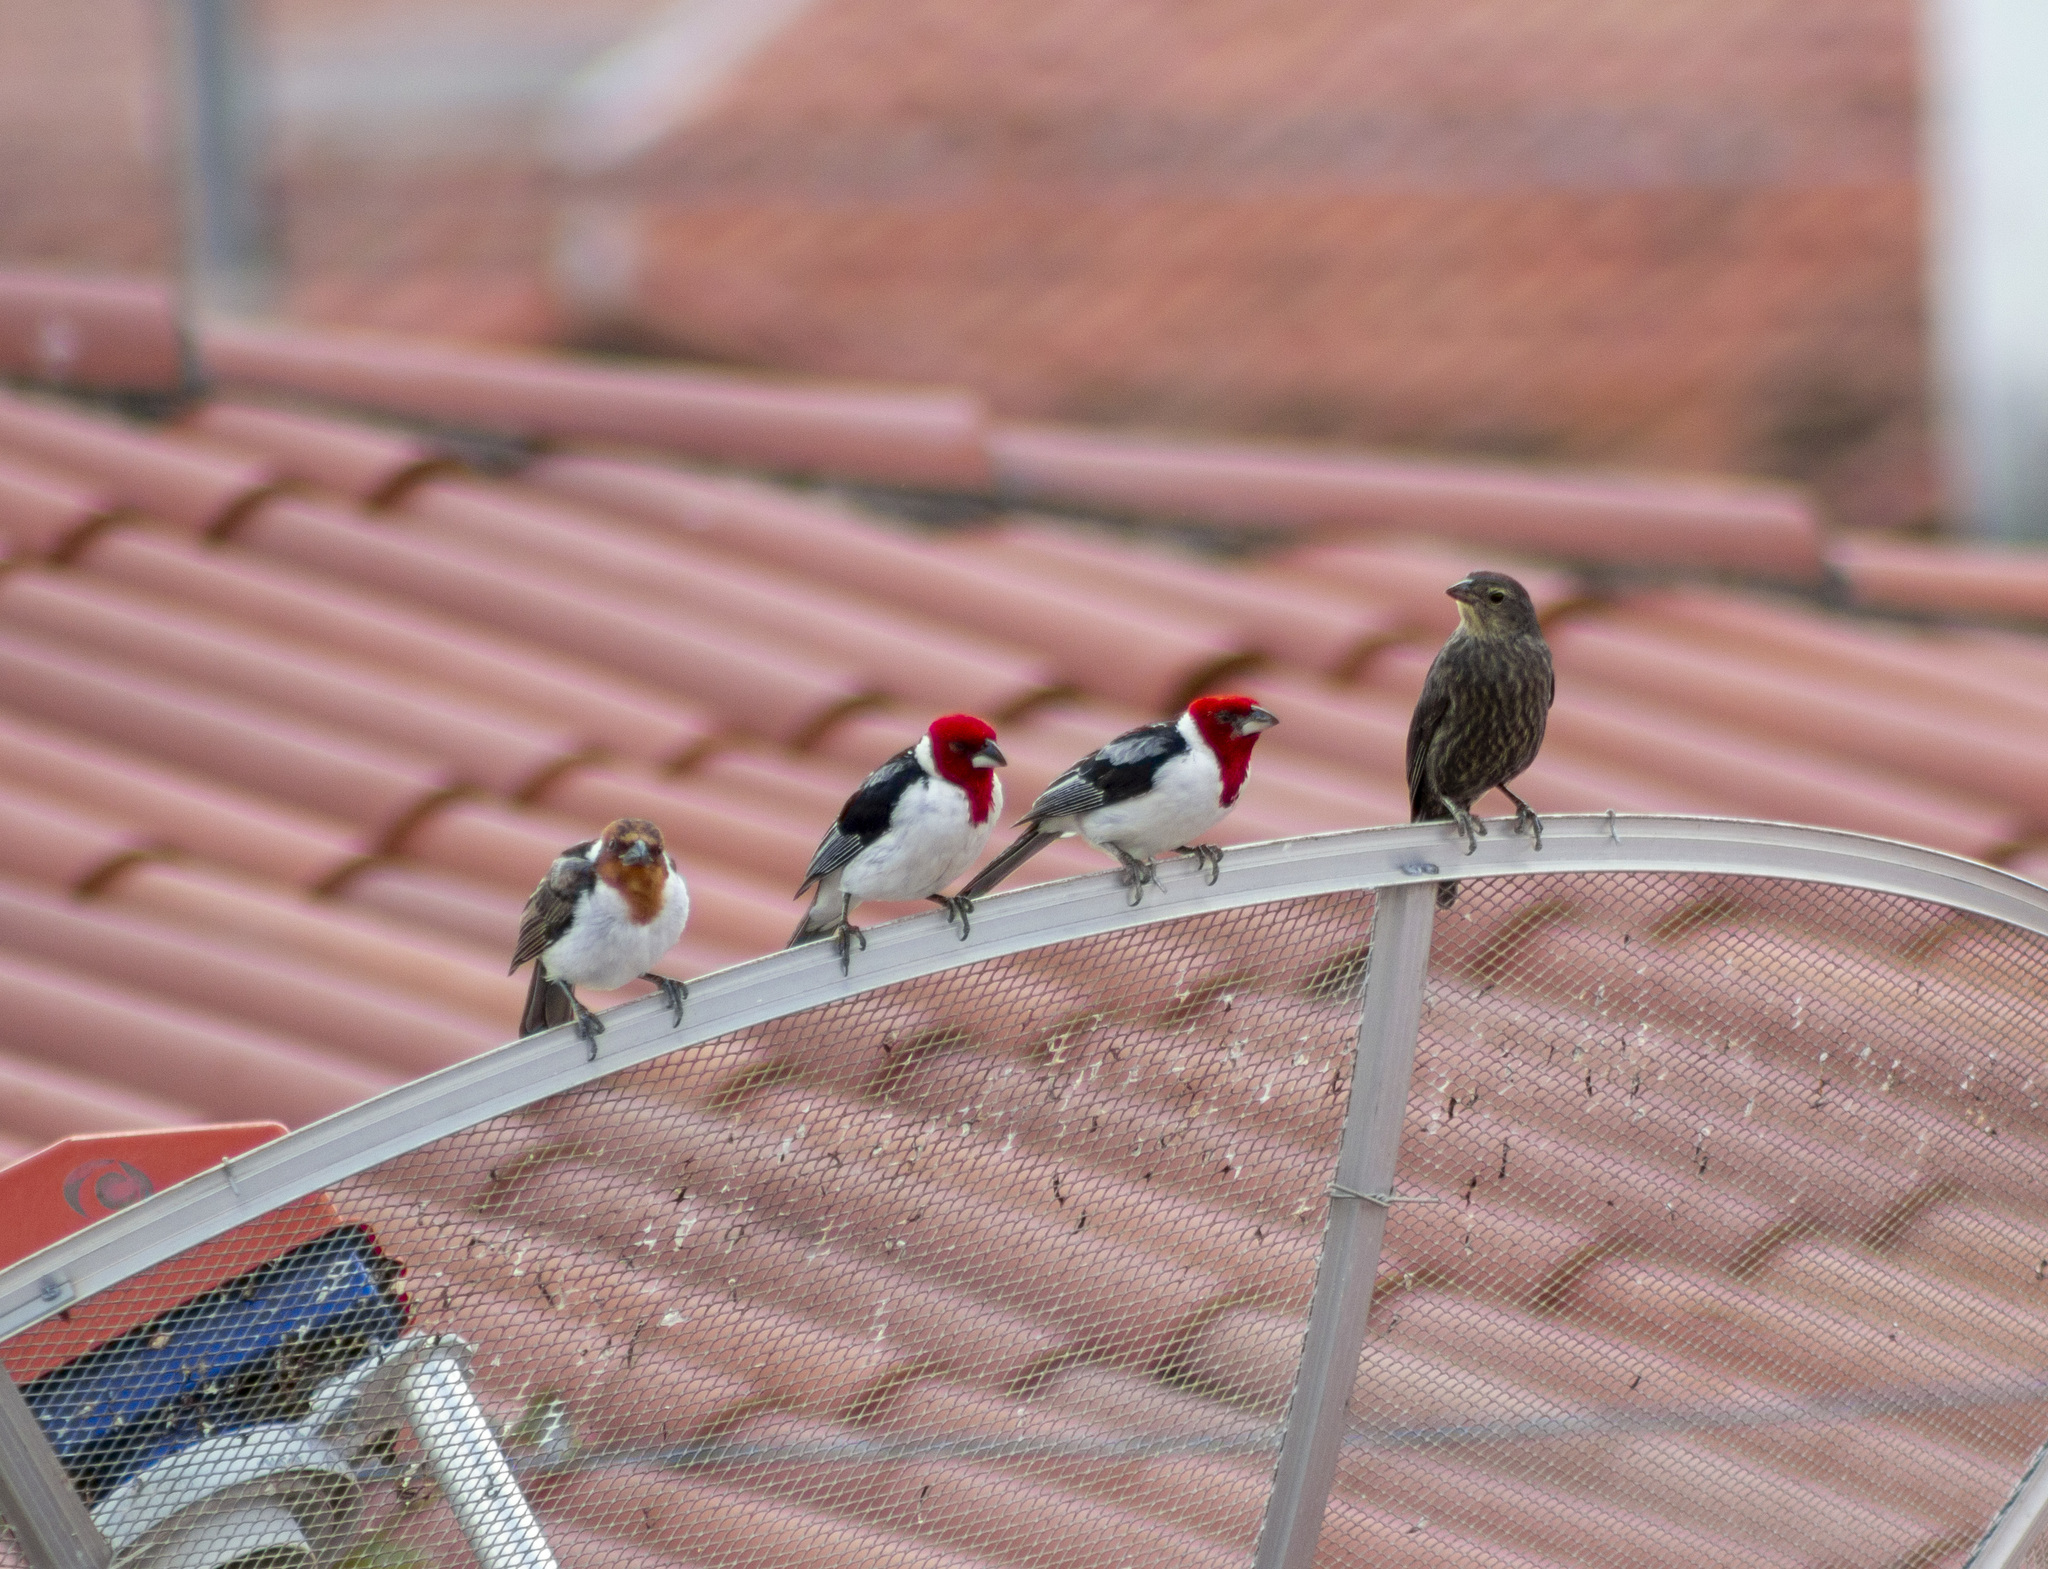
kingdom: Animalia
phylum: Chordata
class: Aves
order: Passeriformes
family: Thraupidae
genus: Paroaria
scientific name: Paroaria dominicana
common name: Red-cowled cardinal
